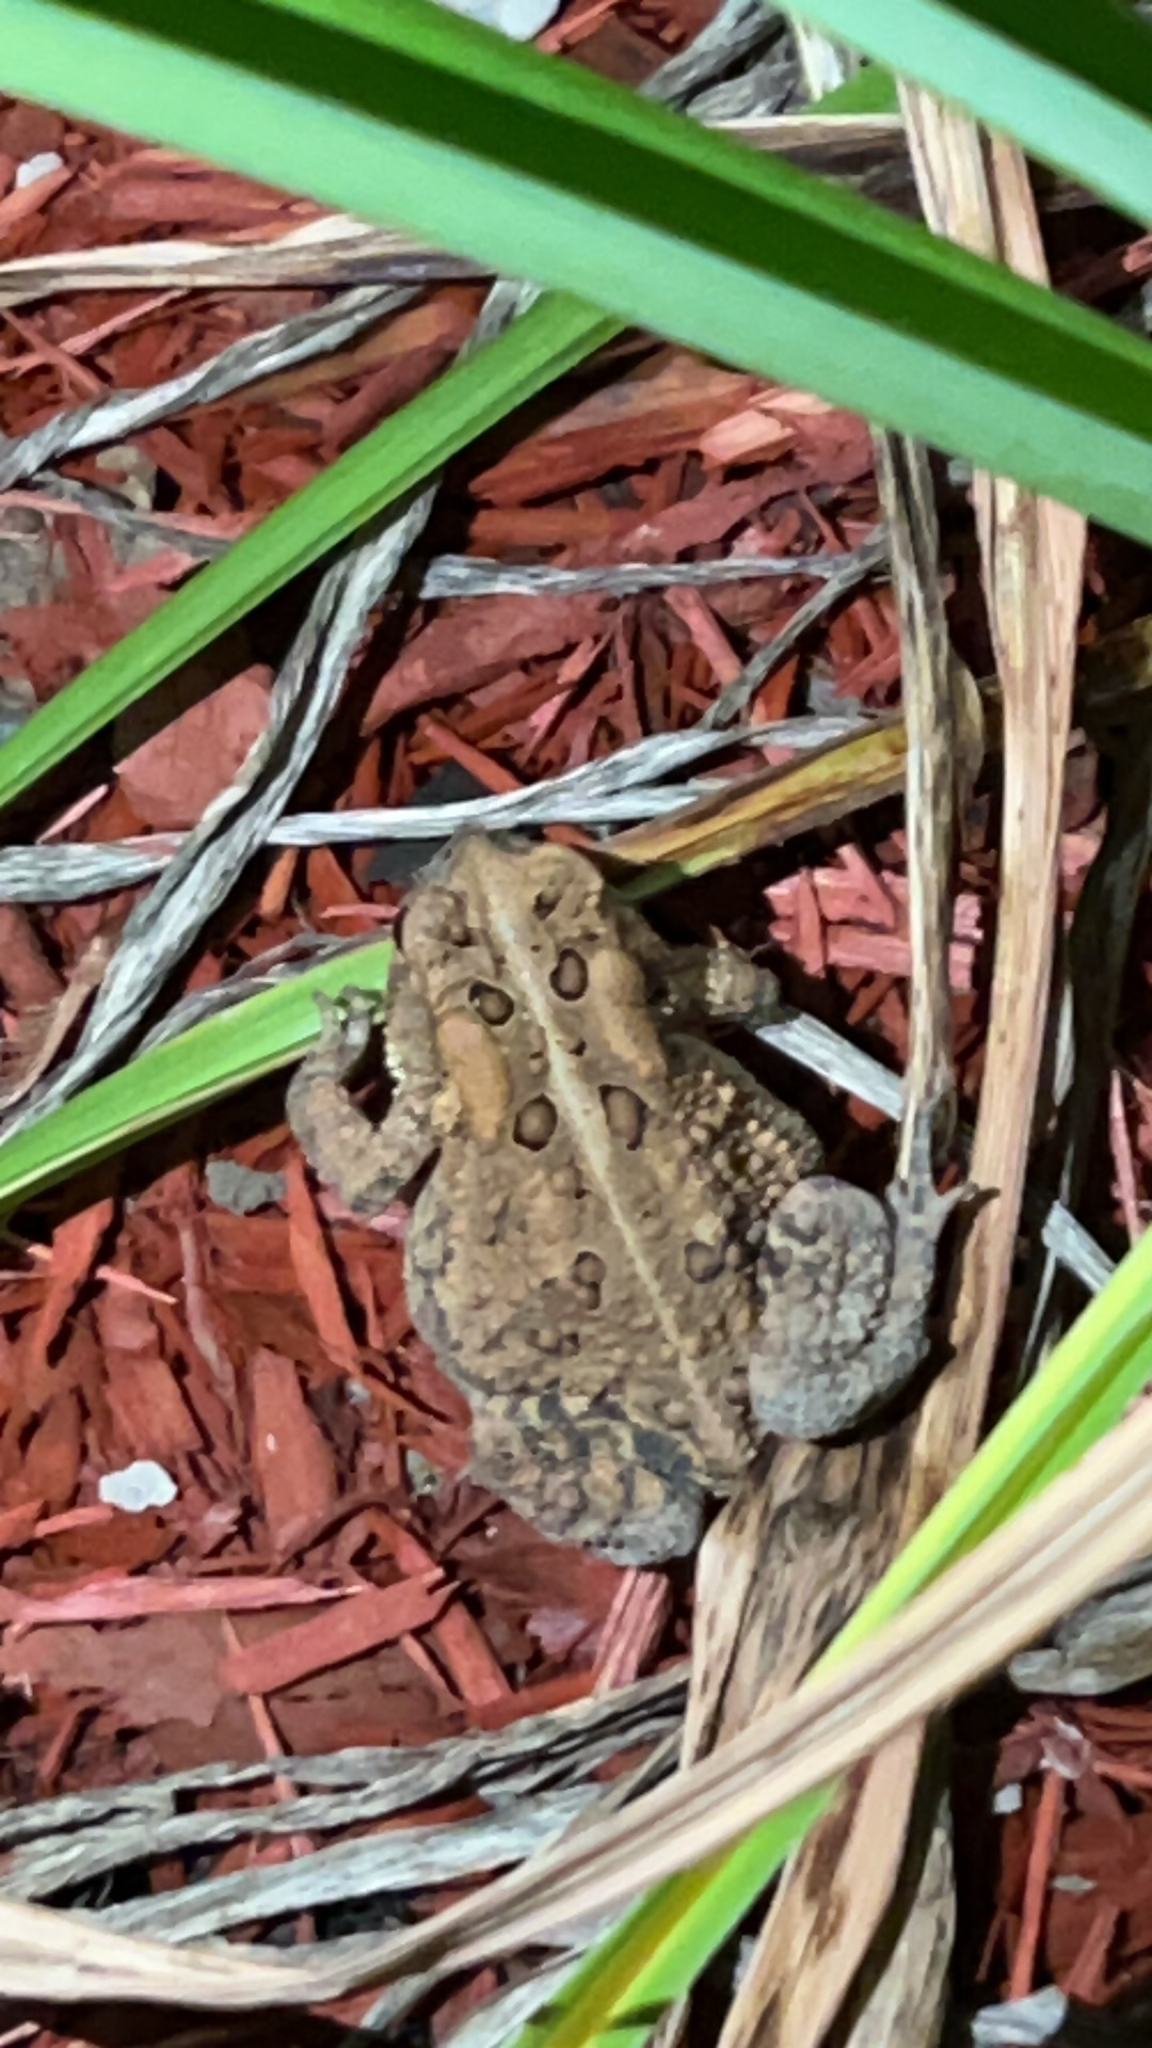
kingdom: Animalia
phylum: Chordata
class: Amphibia
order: Anura
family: Bufonidae
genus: Anaxyrus
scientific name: Anaxyrus americanus
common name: American toad
